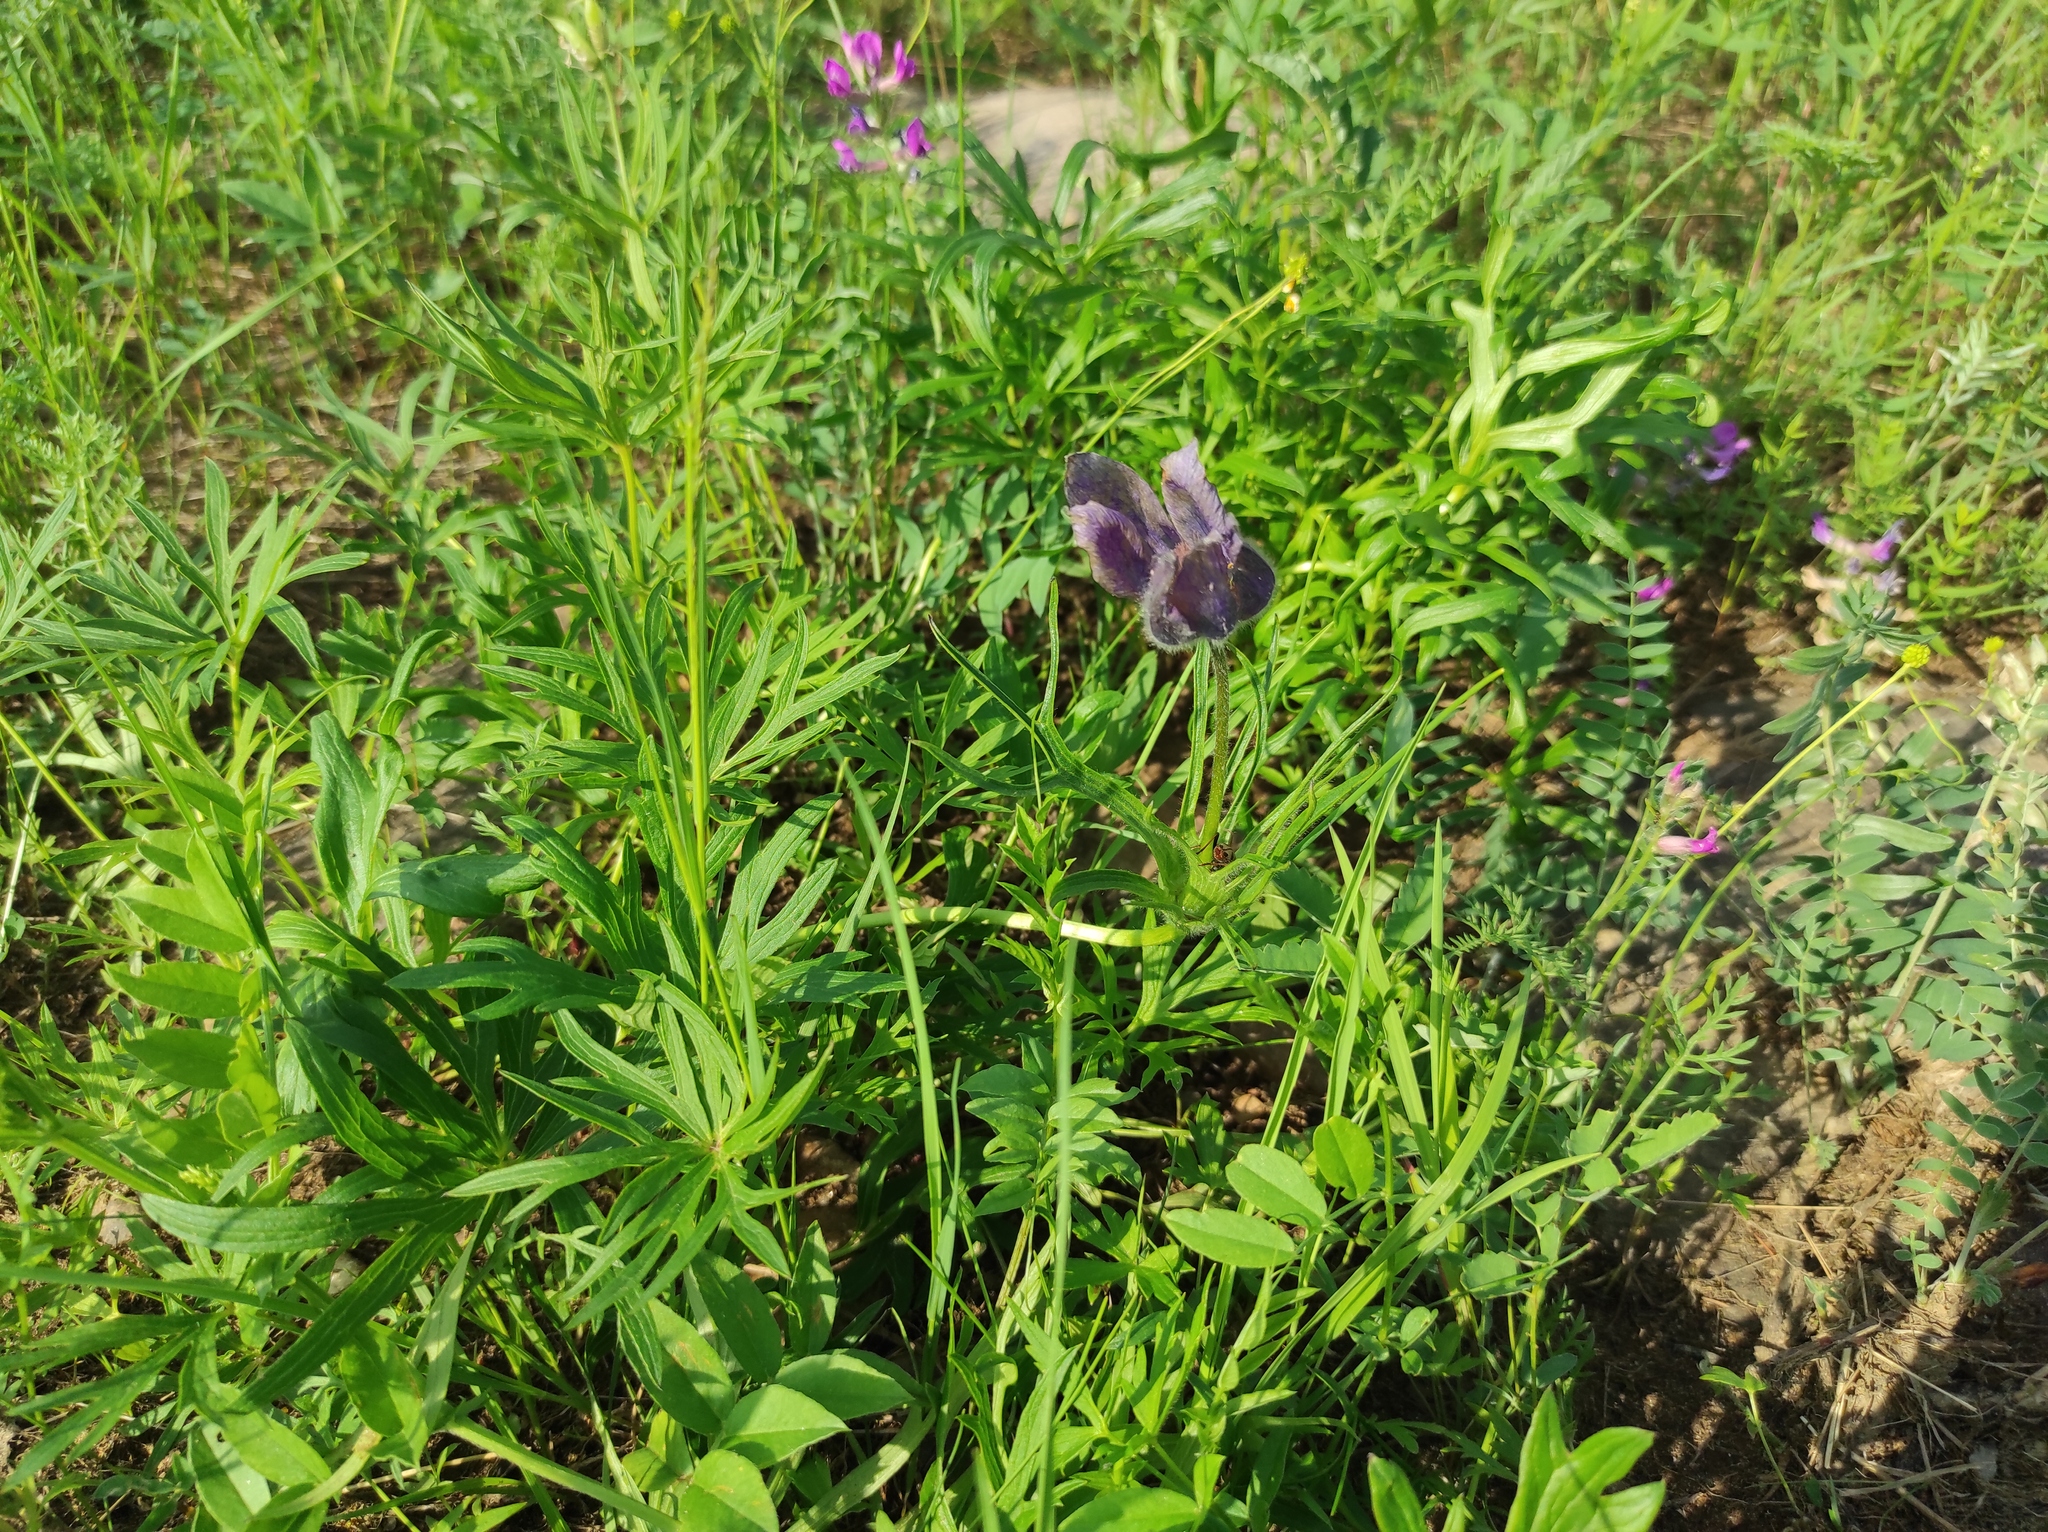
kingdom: Plantae
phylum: Tracheophyta
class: Magnoliopsida
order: Ranunculales
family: Ranunculaceae
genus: Pulsatilla
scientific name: Pulsatilla patens
